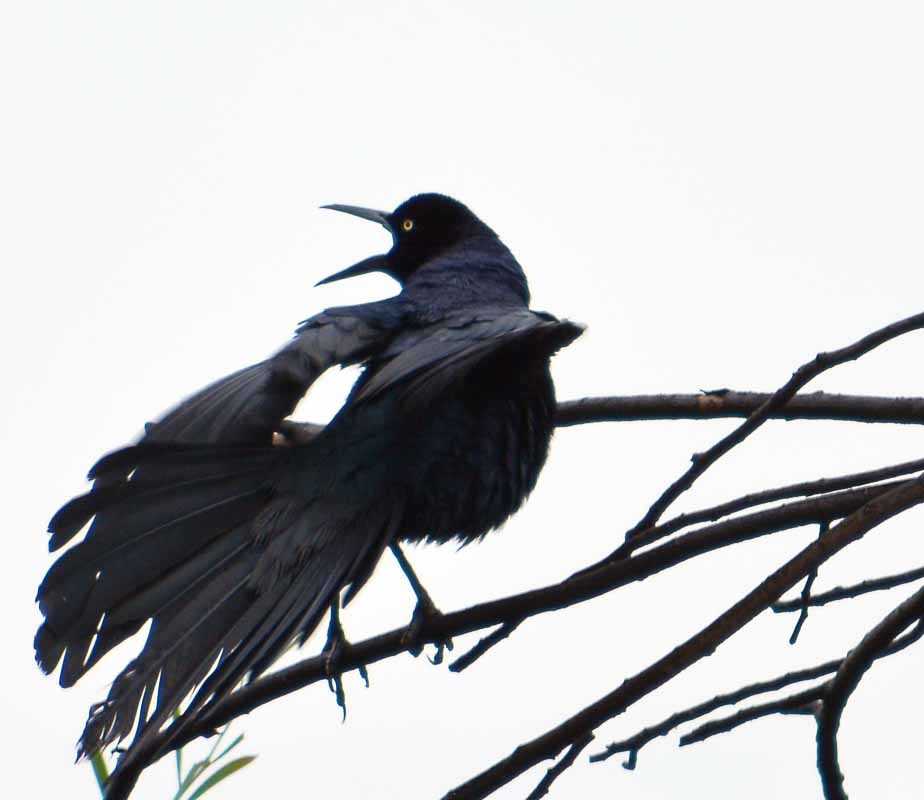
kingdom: Animalia
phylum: Chordata
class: Aves
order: Passeriformes
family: Icteridae
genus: Quiscalus
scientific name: Quiscalus mexicanus
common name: Great-tailed grackle
